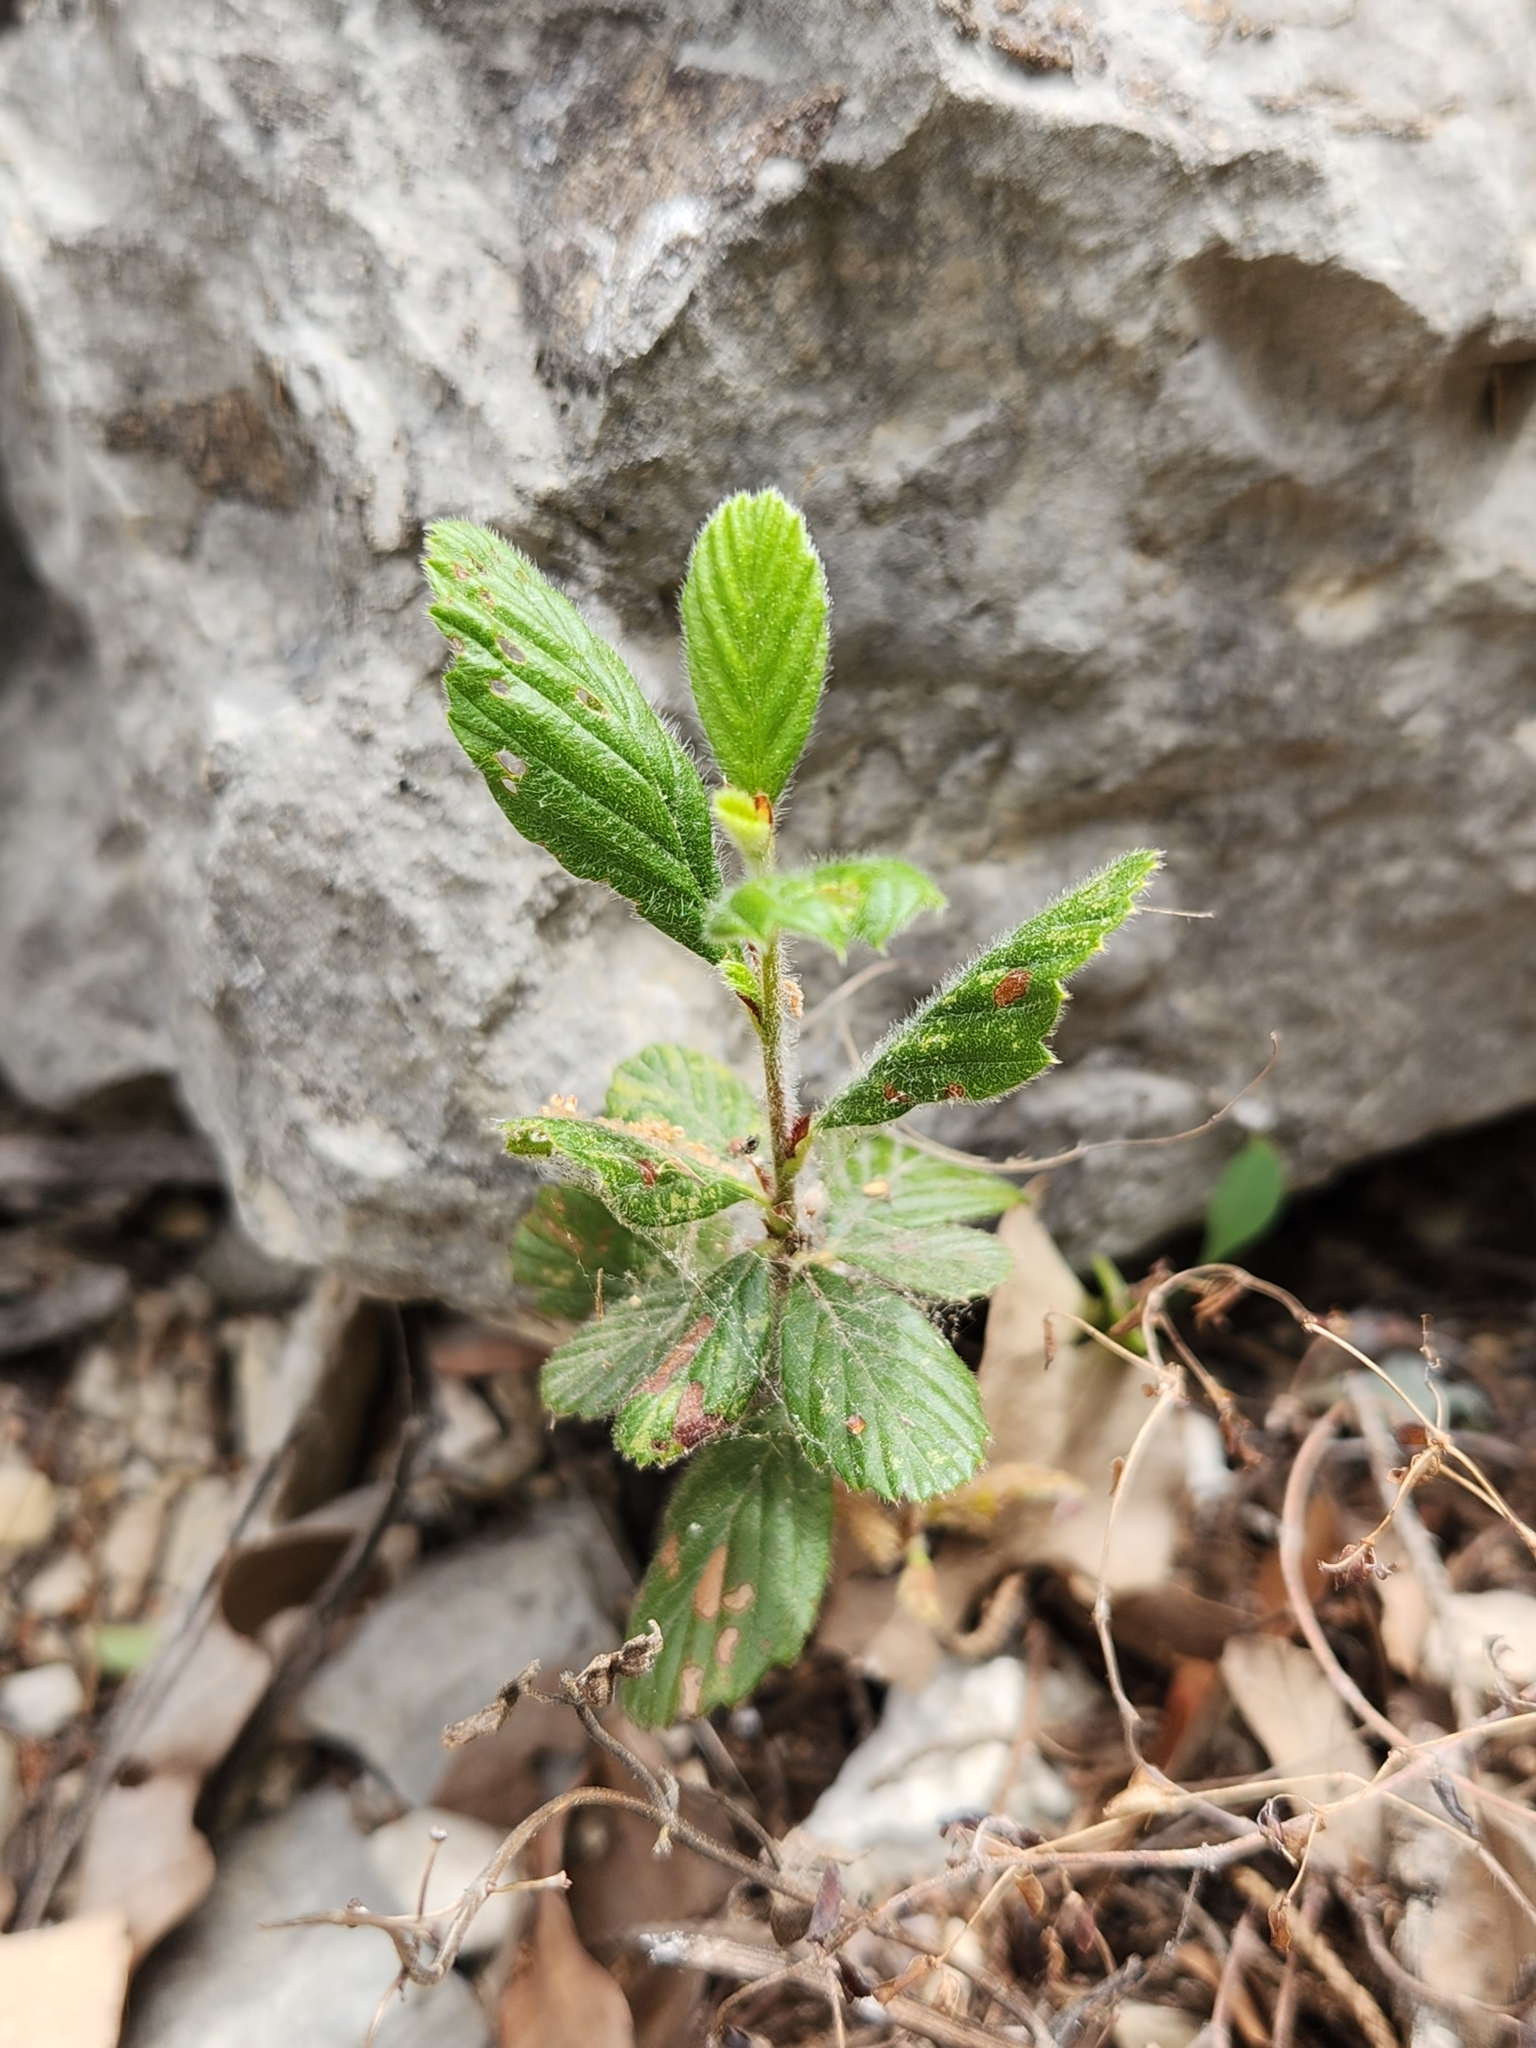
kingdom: Plantae
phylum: Tracheophyta
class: Magnoliopsida
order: Rosales
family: Rosaceae
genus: Cercocarpus
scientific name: Cercocarpus montanus
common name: Alder-leaf cercocarpus
